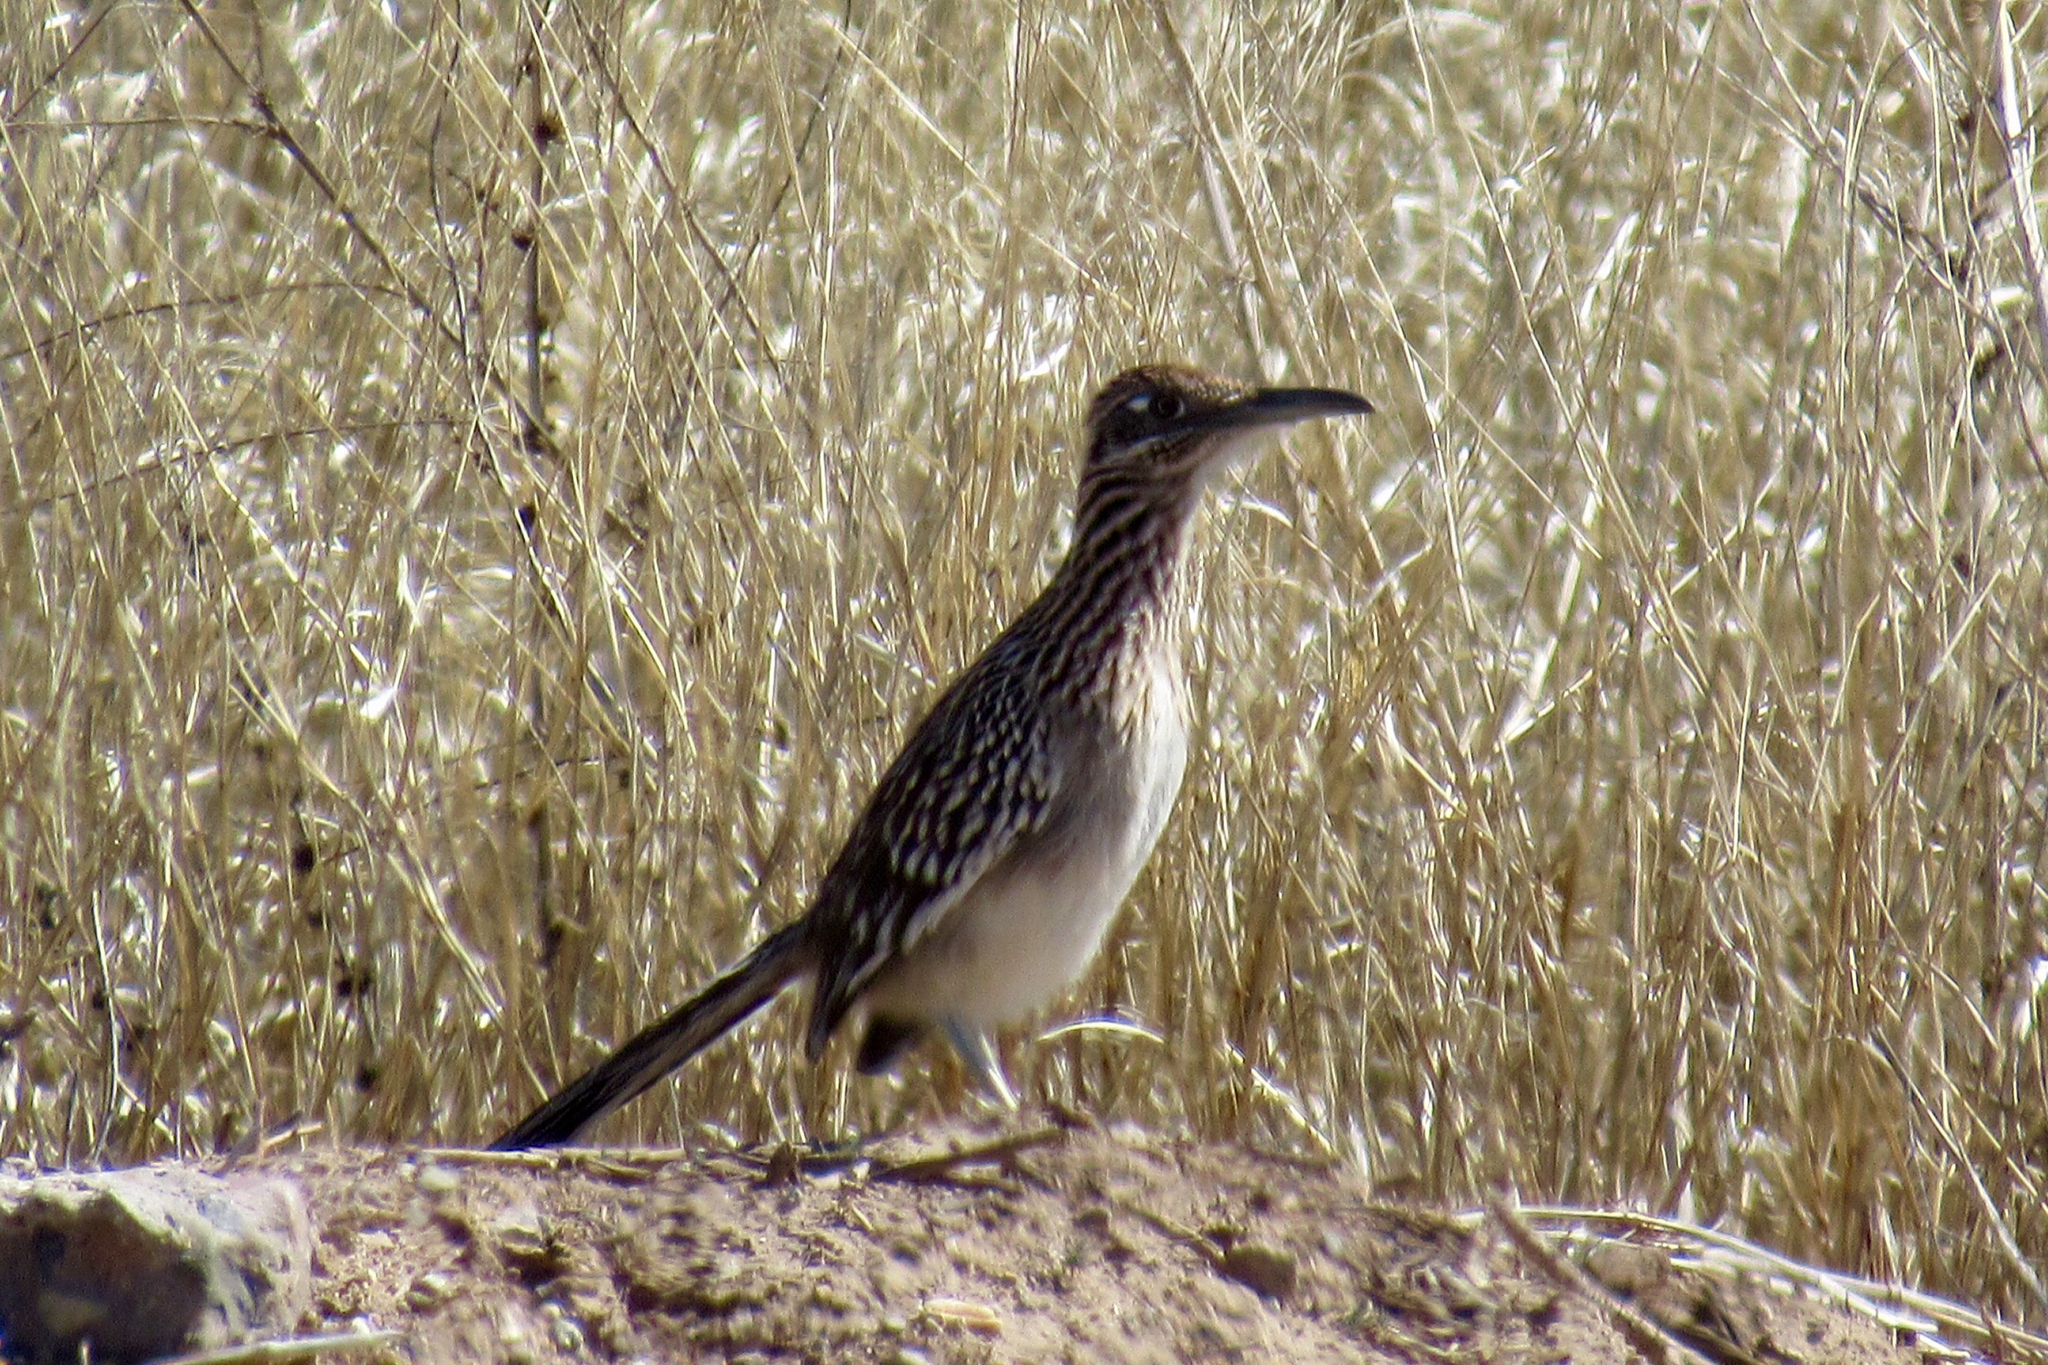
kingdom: Animalia
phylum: Chordata
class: Aves
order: Cuculiformes
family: Cuculidae
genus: Geococcyx
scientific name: Geococcyx californianus
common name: Greater roadrunner
